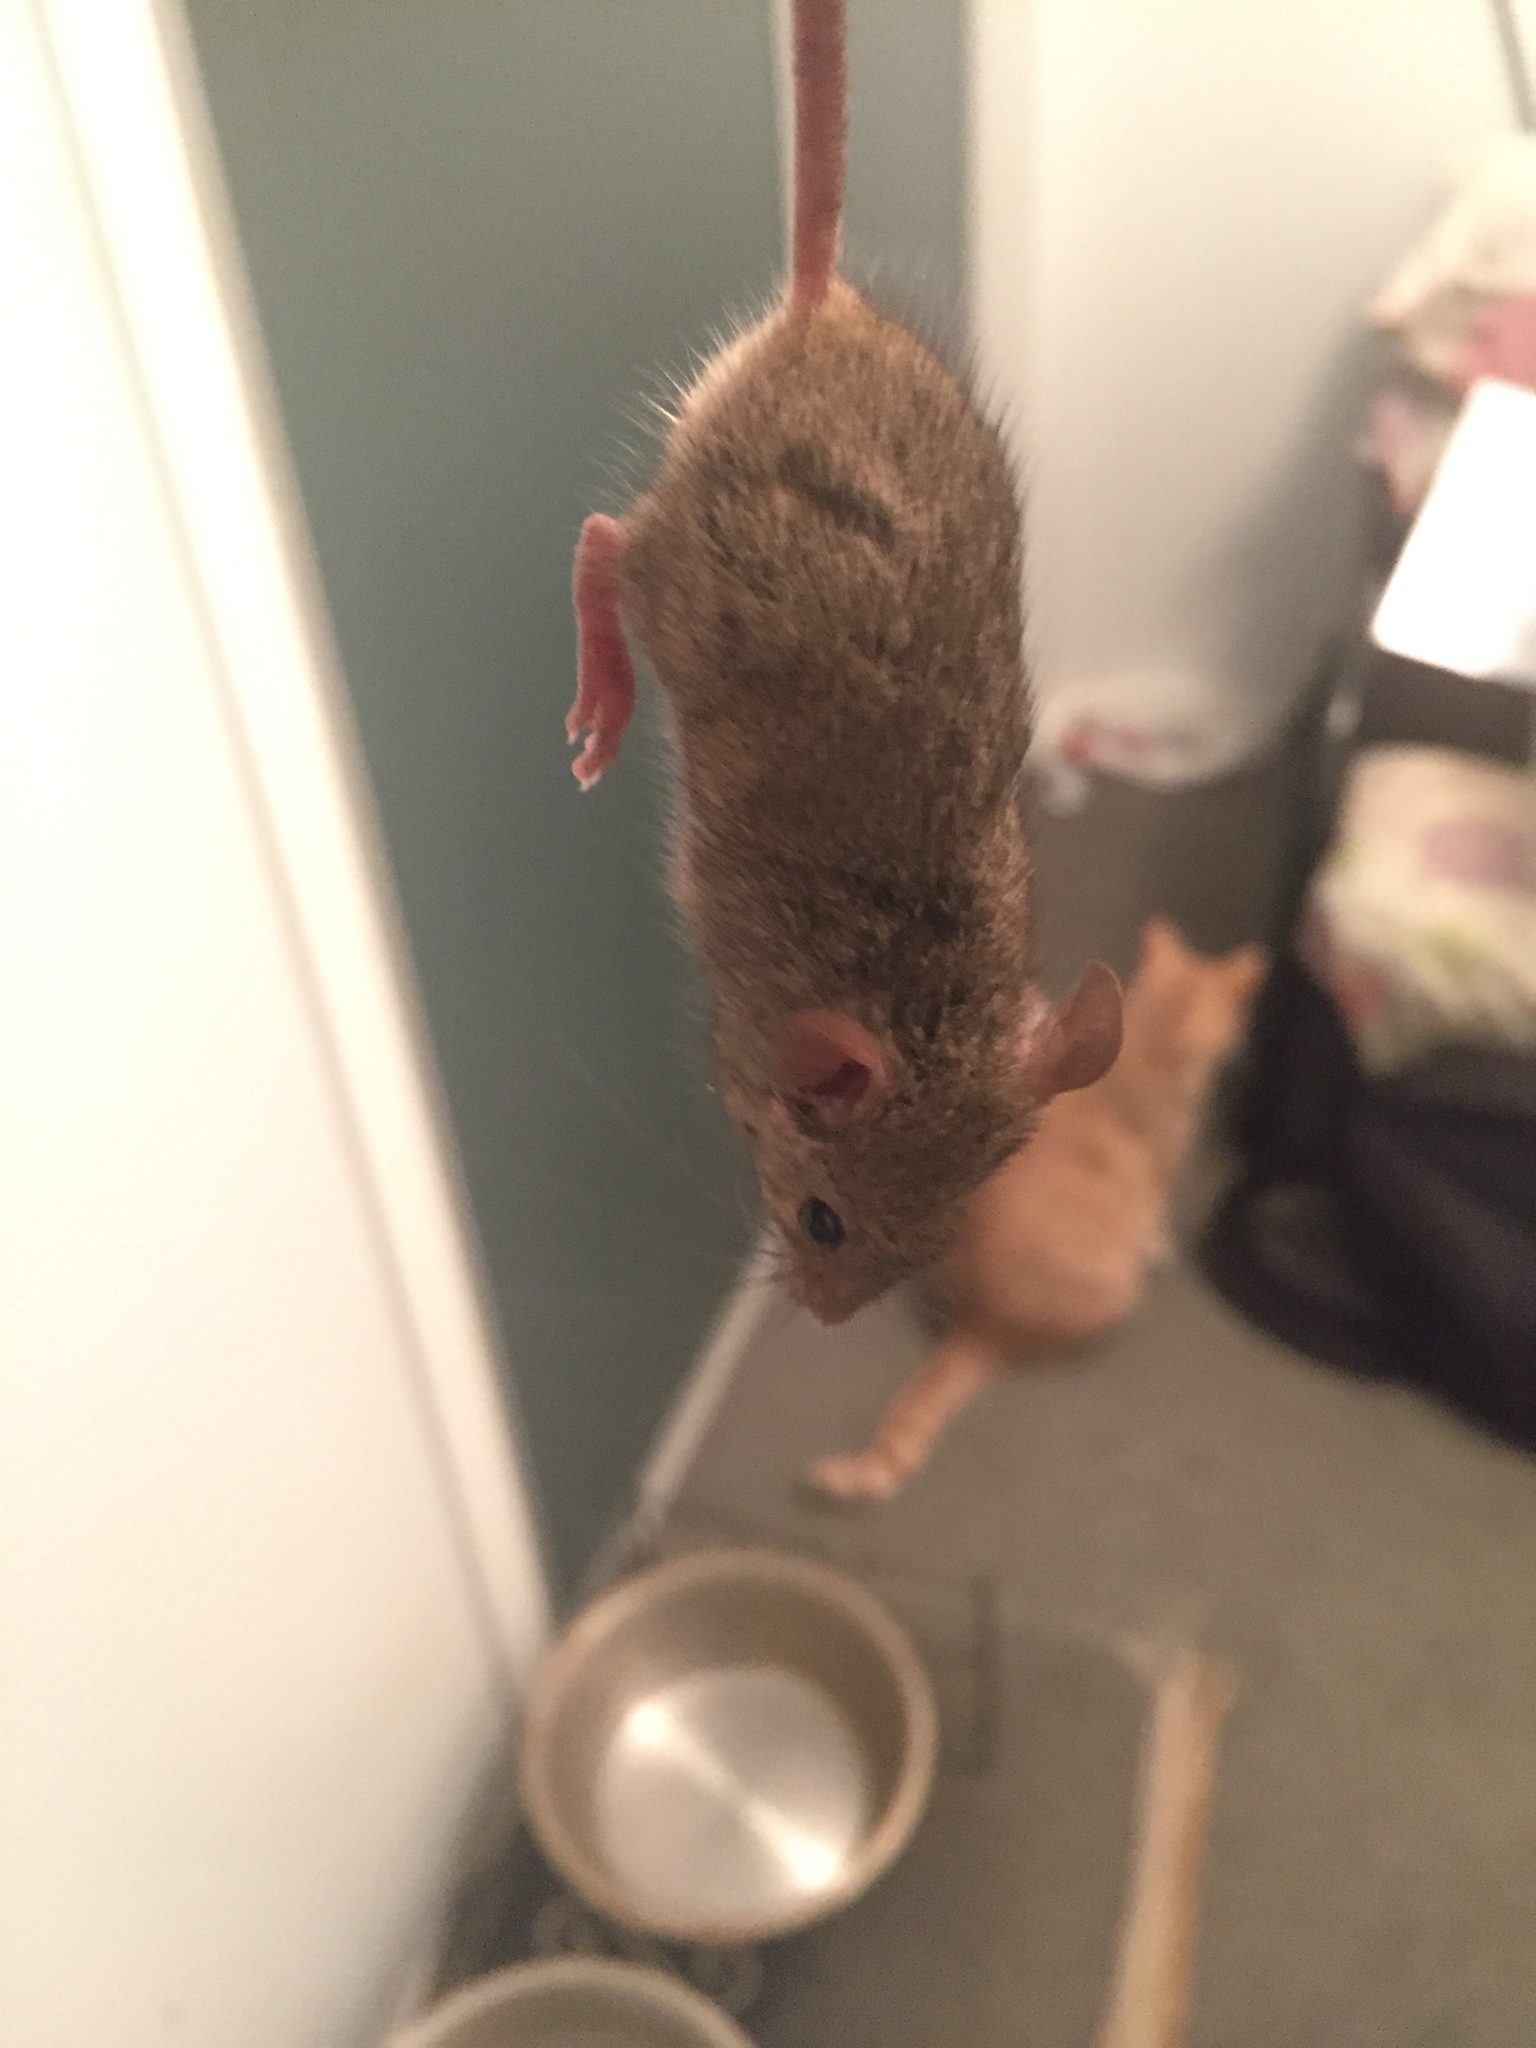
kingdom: Animalia
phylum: Chordata
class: Mammalia
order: Rodentia
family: Muridae
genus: Mus
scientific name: Mus musculus
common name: House mouse
